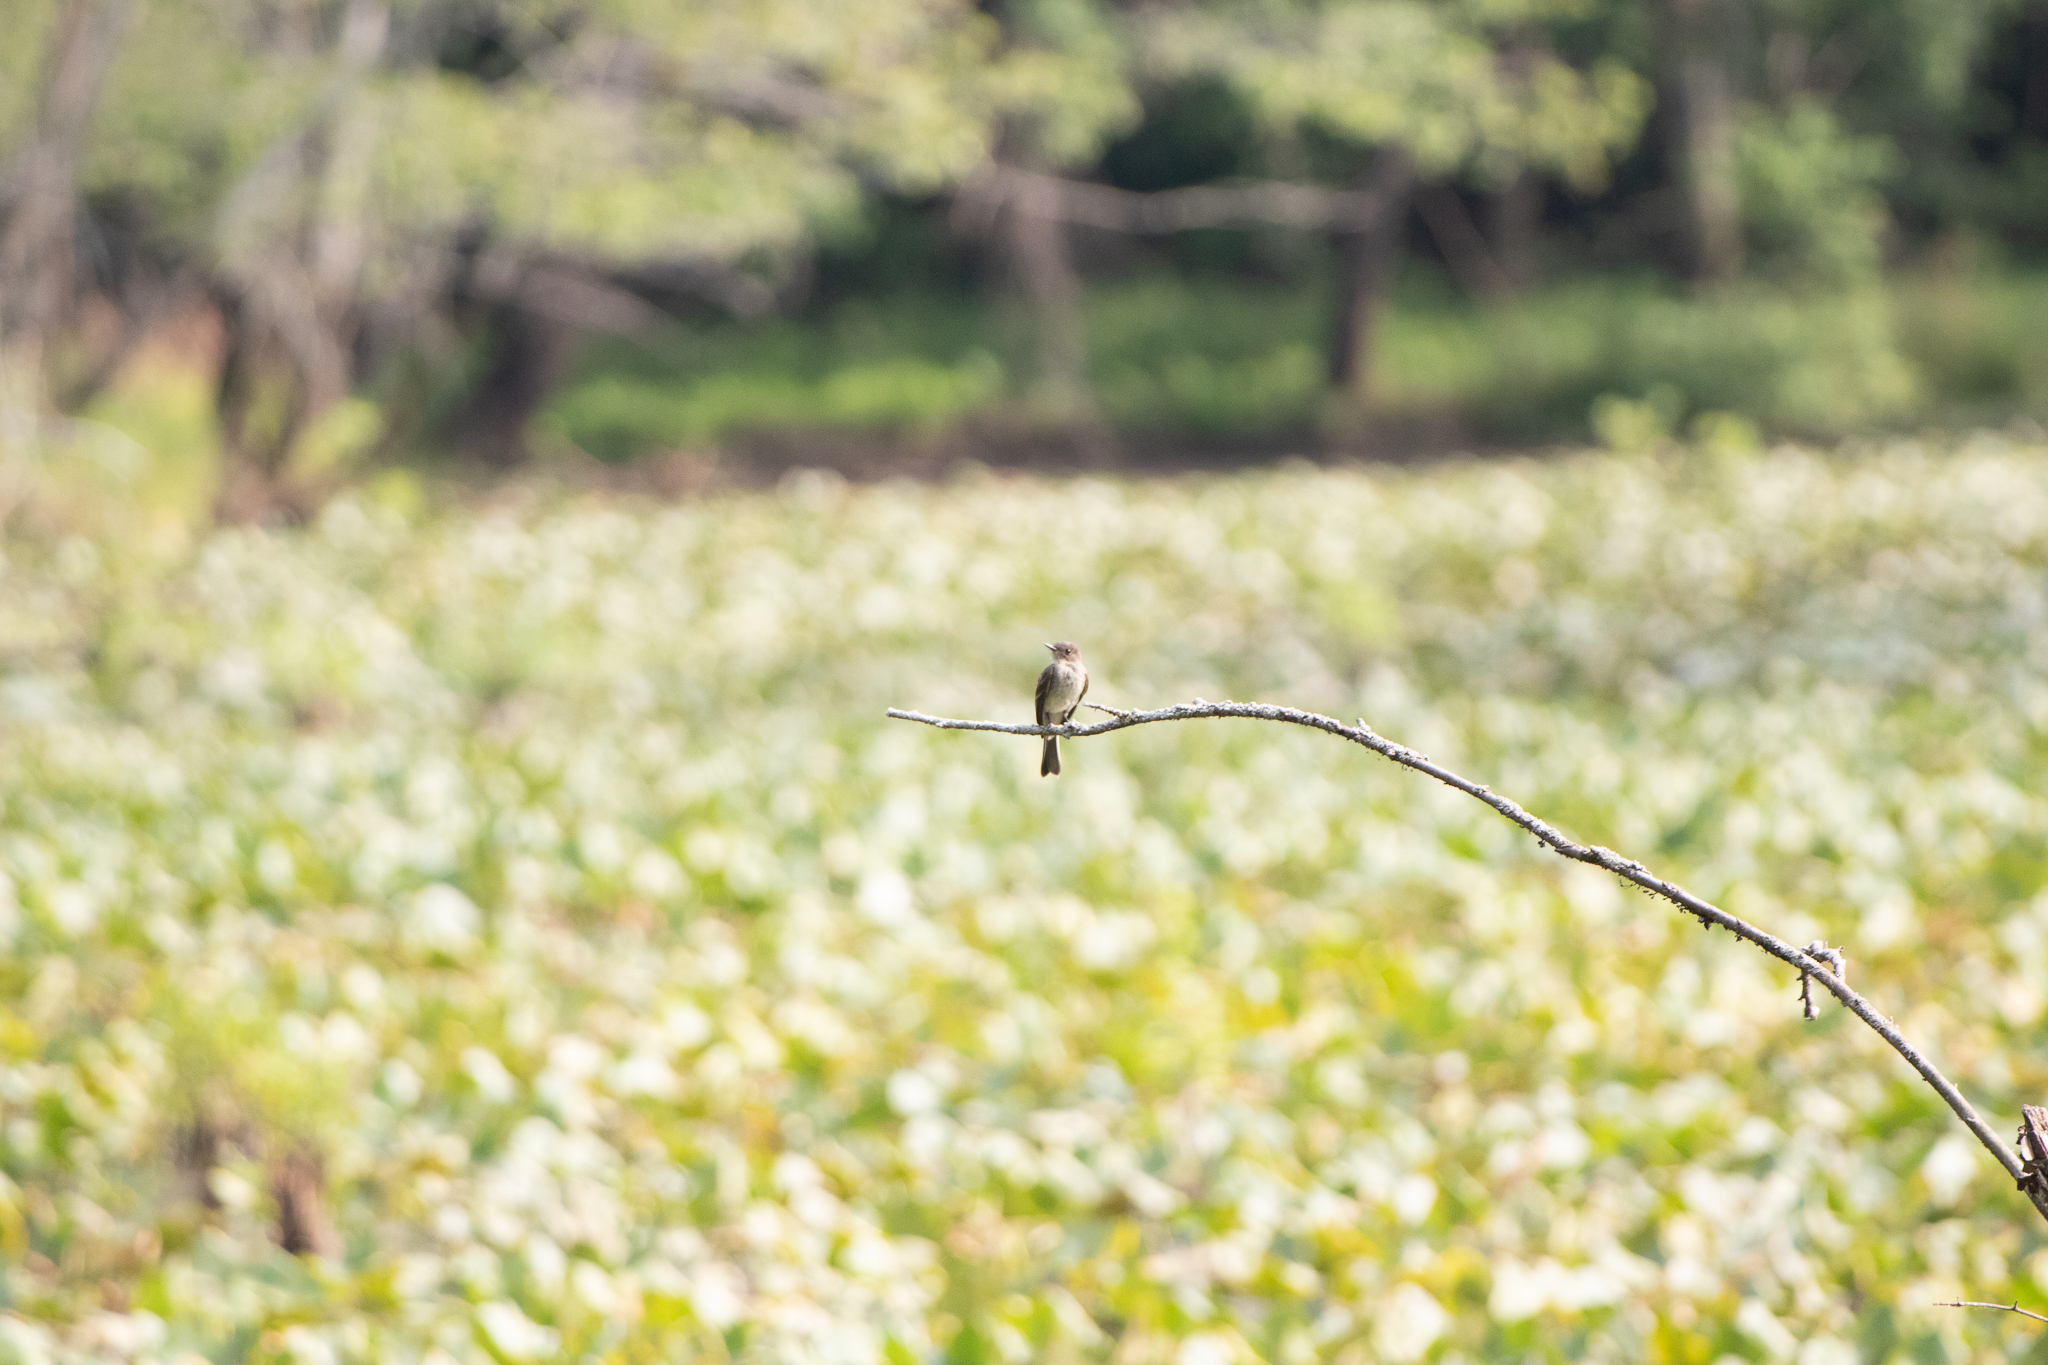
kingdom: Animalia
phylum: Chordata
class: Aves
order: Passeriformes
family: Tyrannidae
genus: Sayornis
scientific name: Sayornis phoebe
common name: Eastern phoebe
